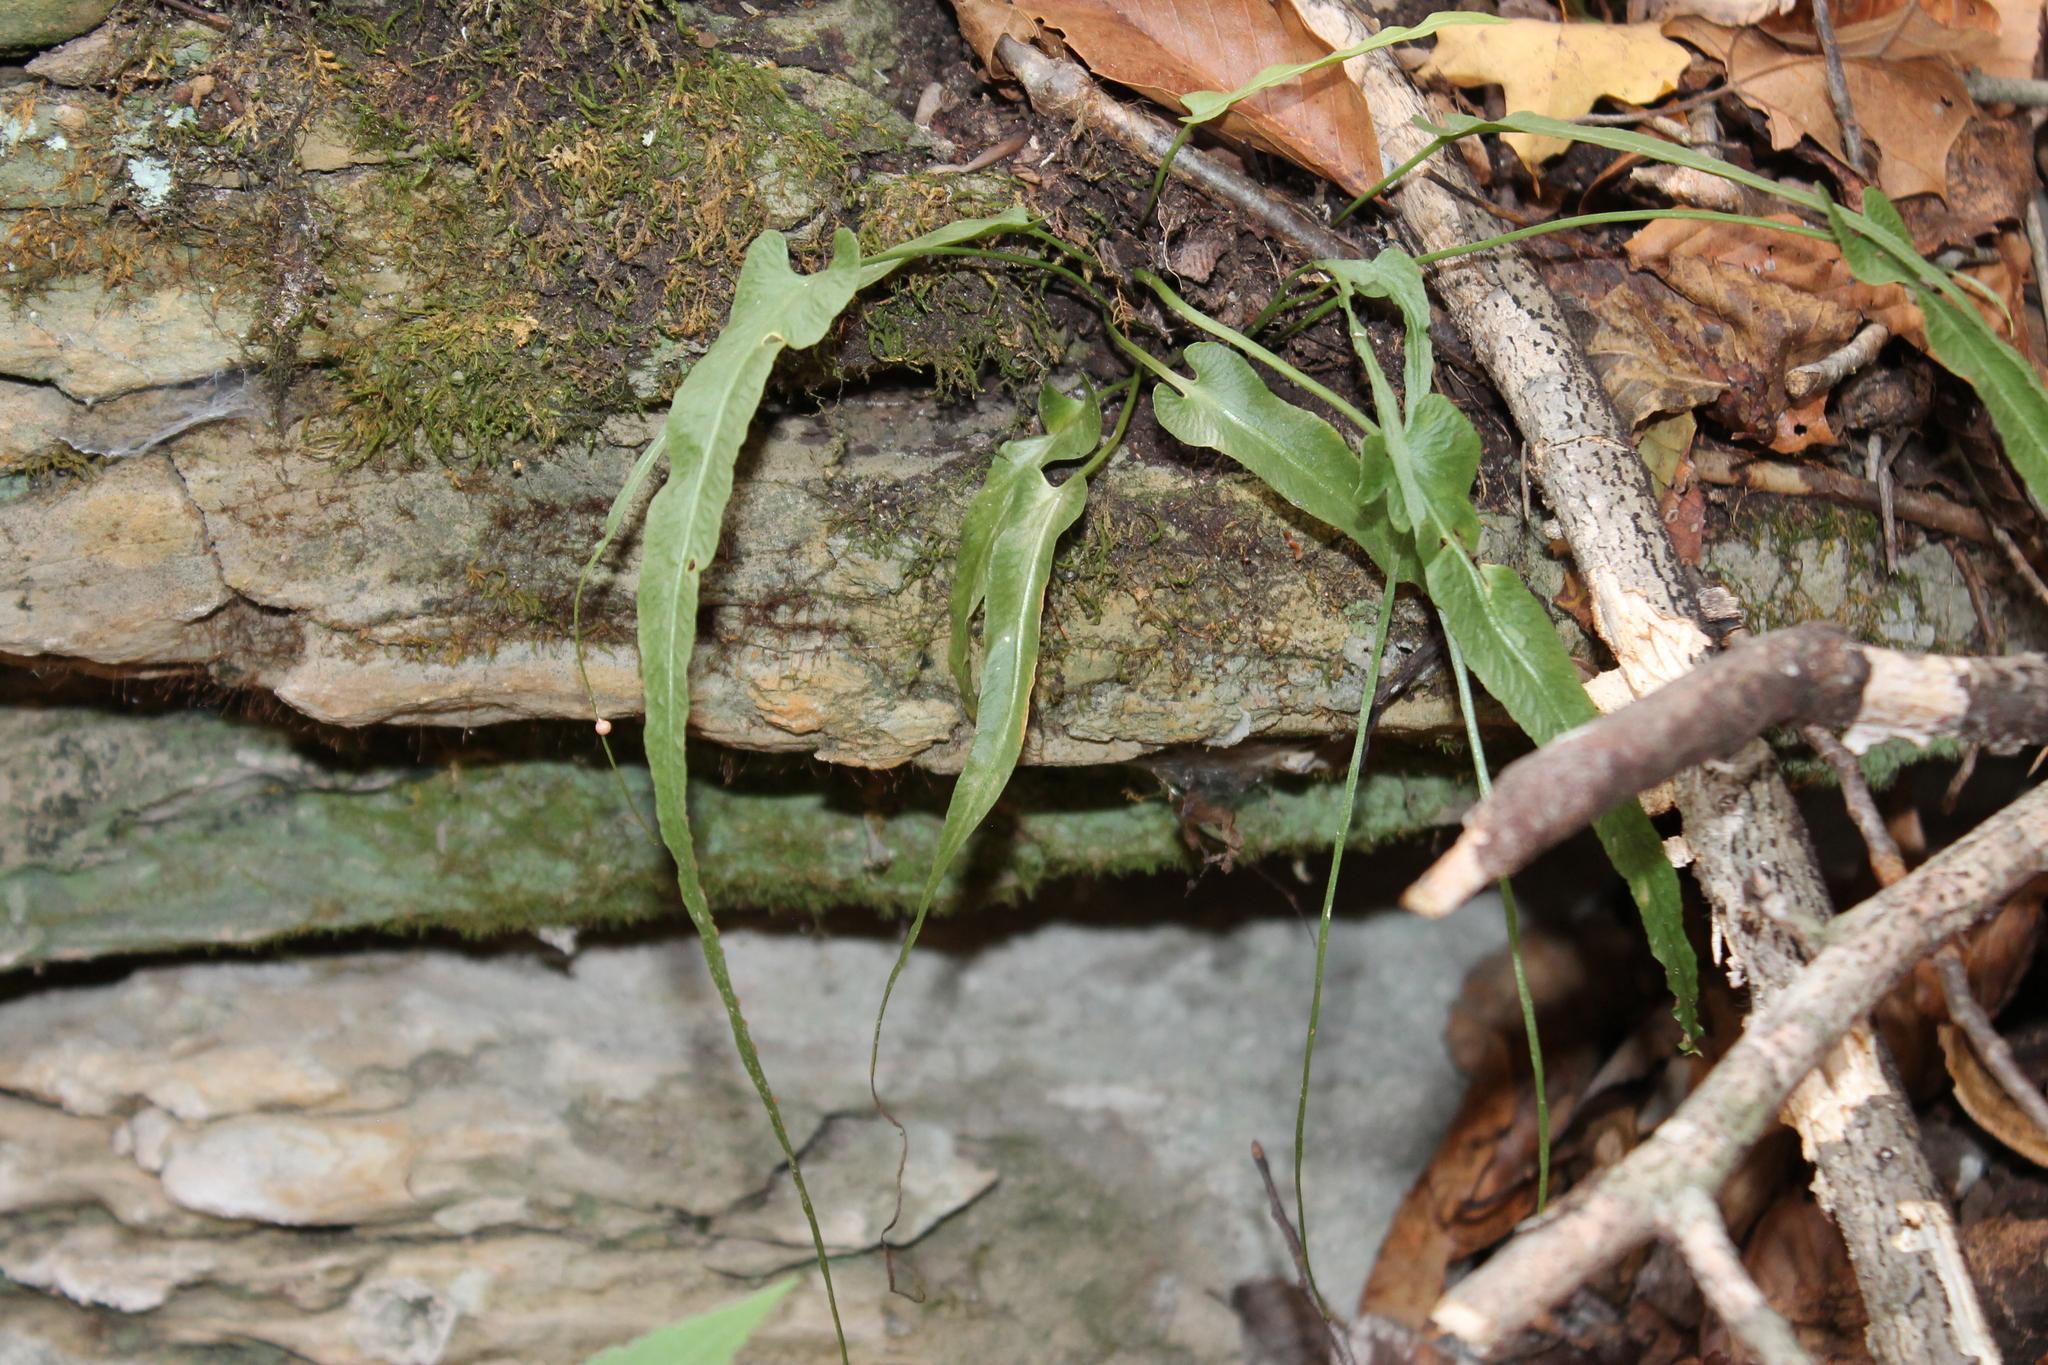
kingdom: Plantae
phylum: Tracheophyta
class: Polypodiopsida
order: Polypodiales
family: Aspleniaceae
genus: Asplenium
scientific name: Asplenium rhizophyllum
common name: Walking fern
